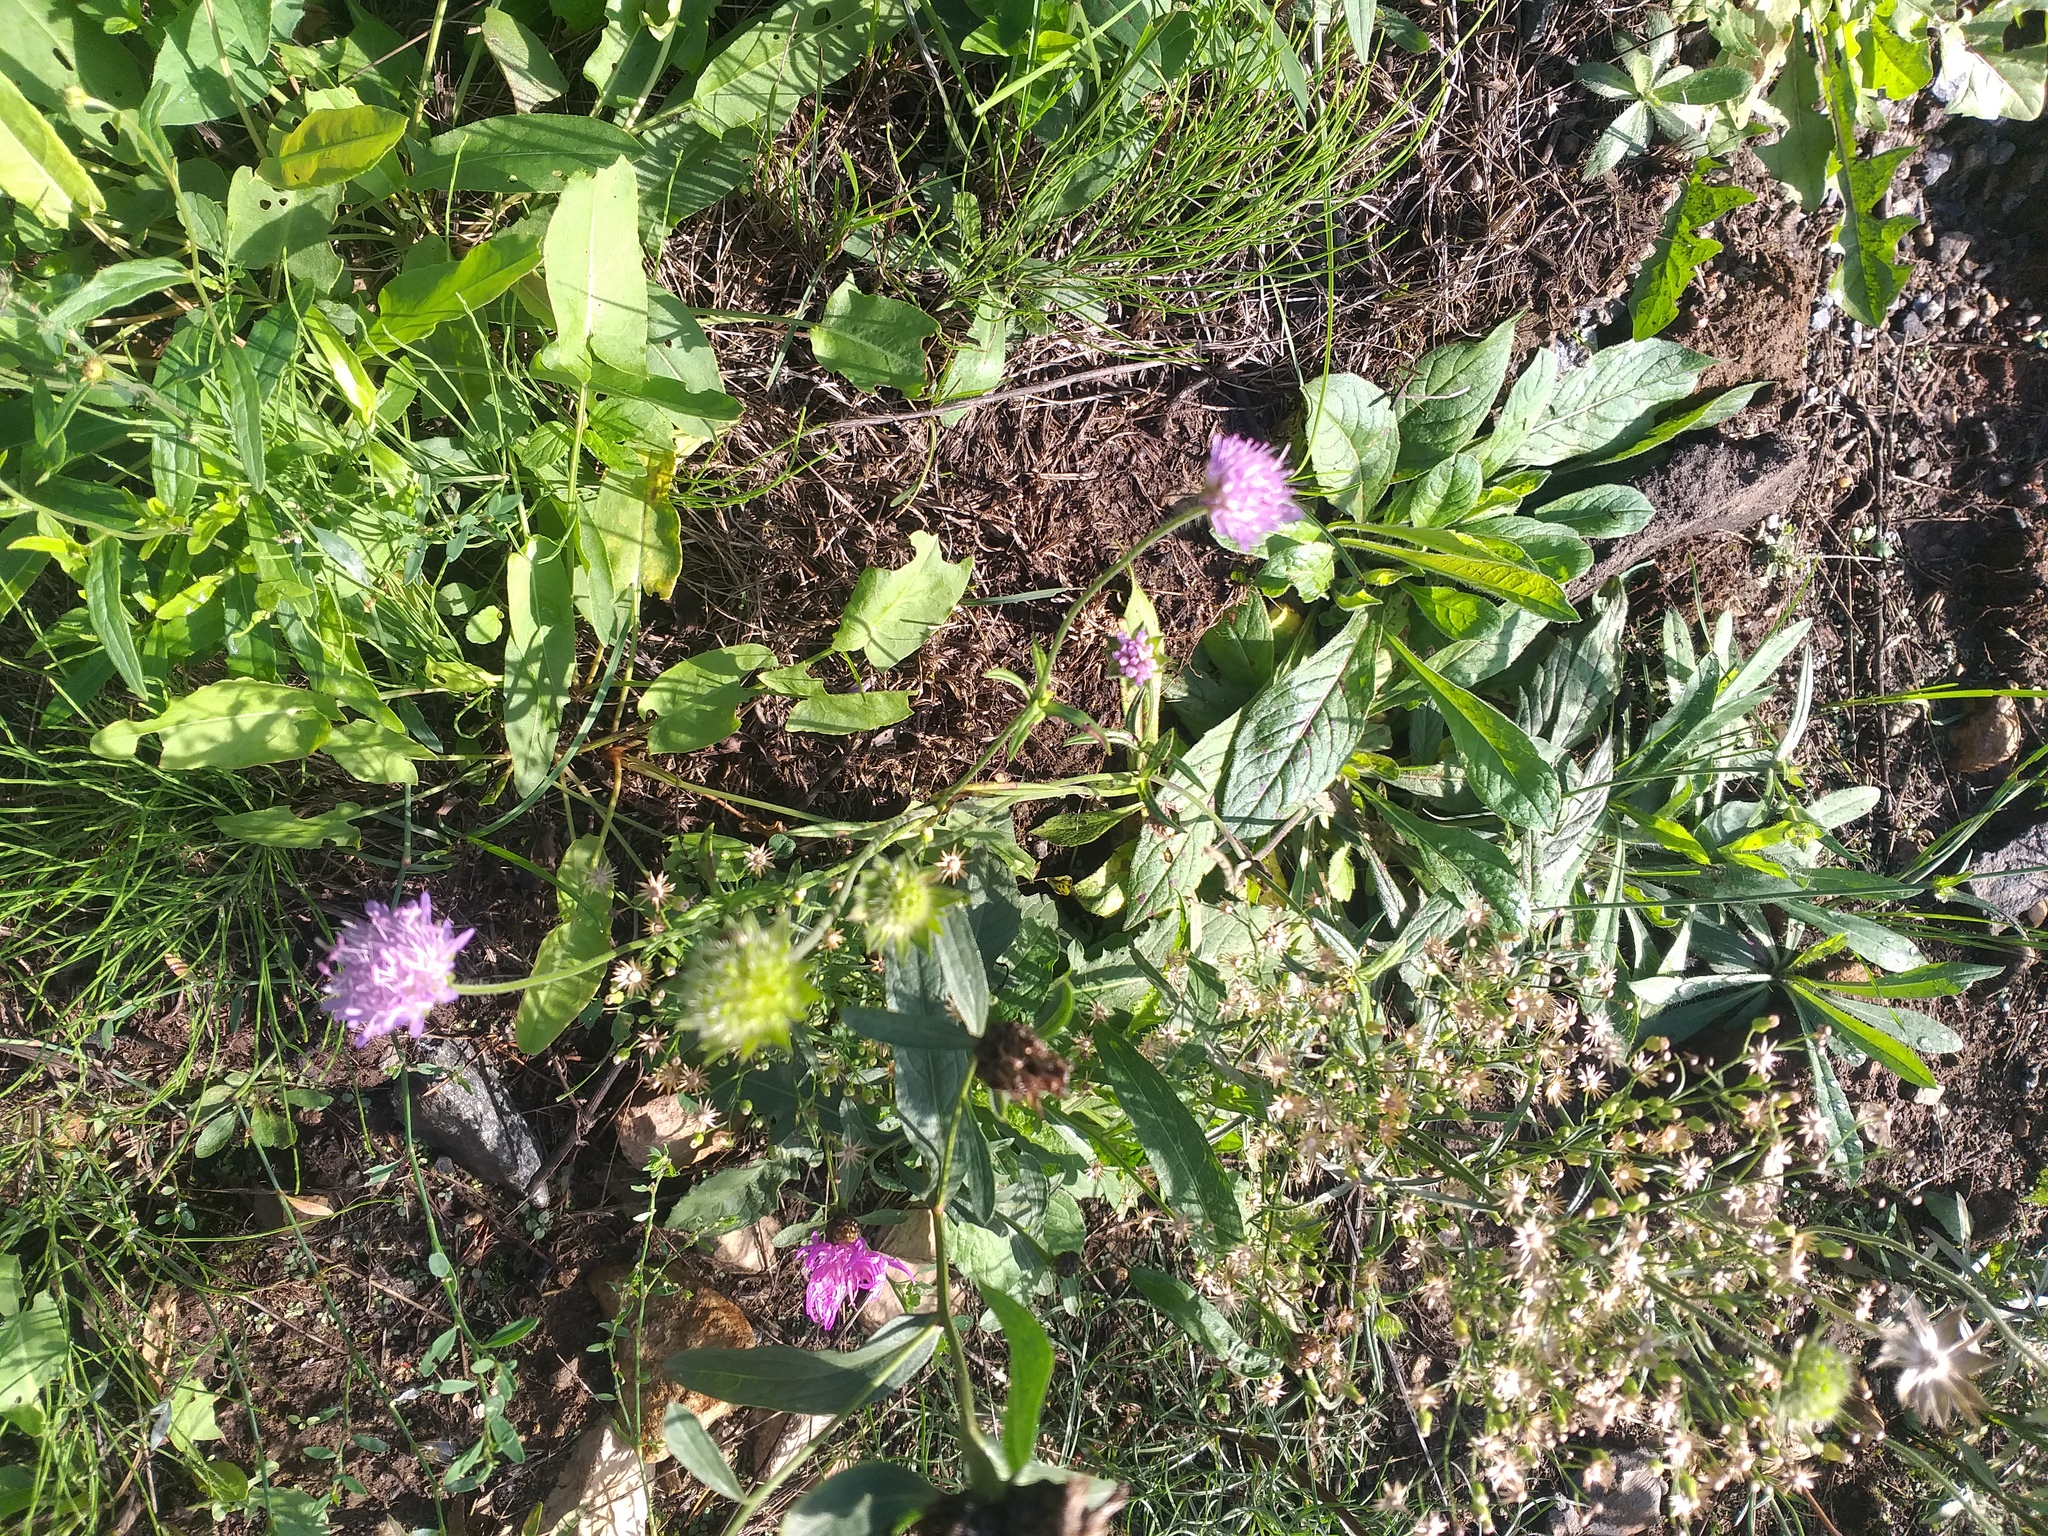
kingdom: Plantae
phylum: Tracheophyta
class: Magnoliopsida
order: Dipsacales
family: Caprifoliaceae
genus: Knautia
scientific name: Knautia arvensis
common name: Field scabiosa
